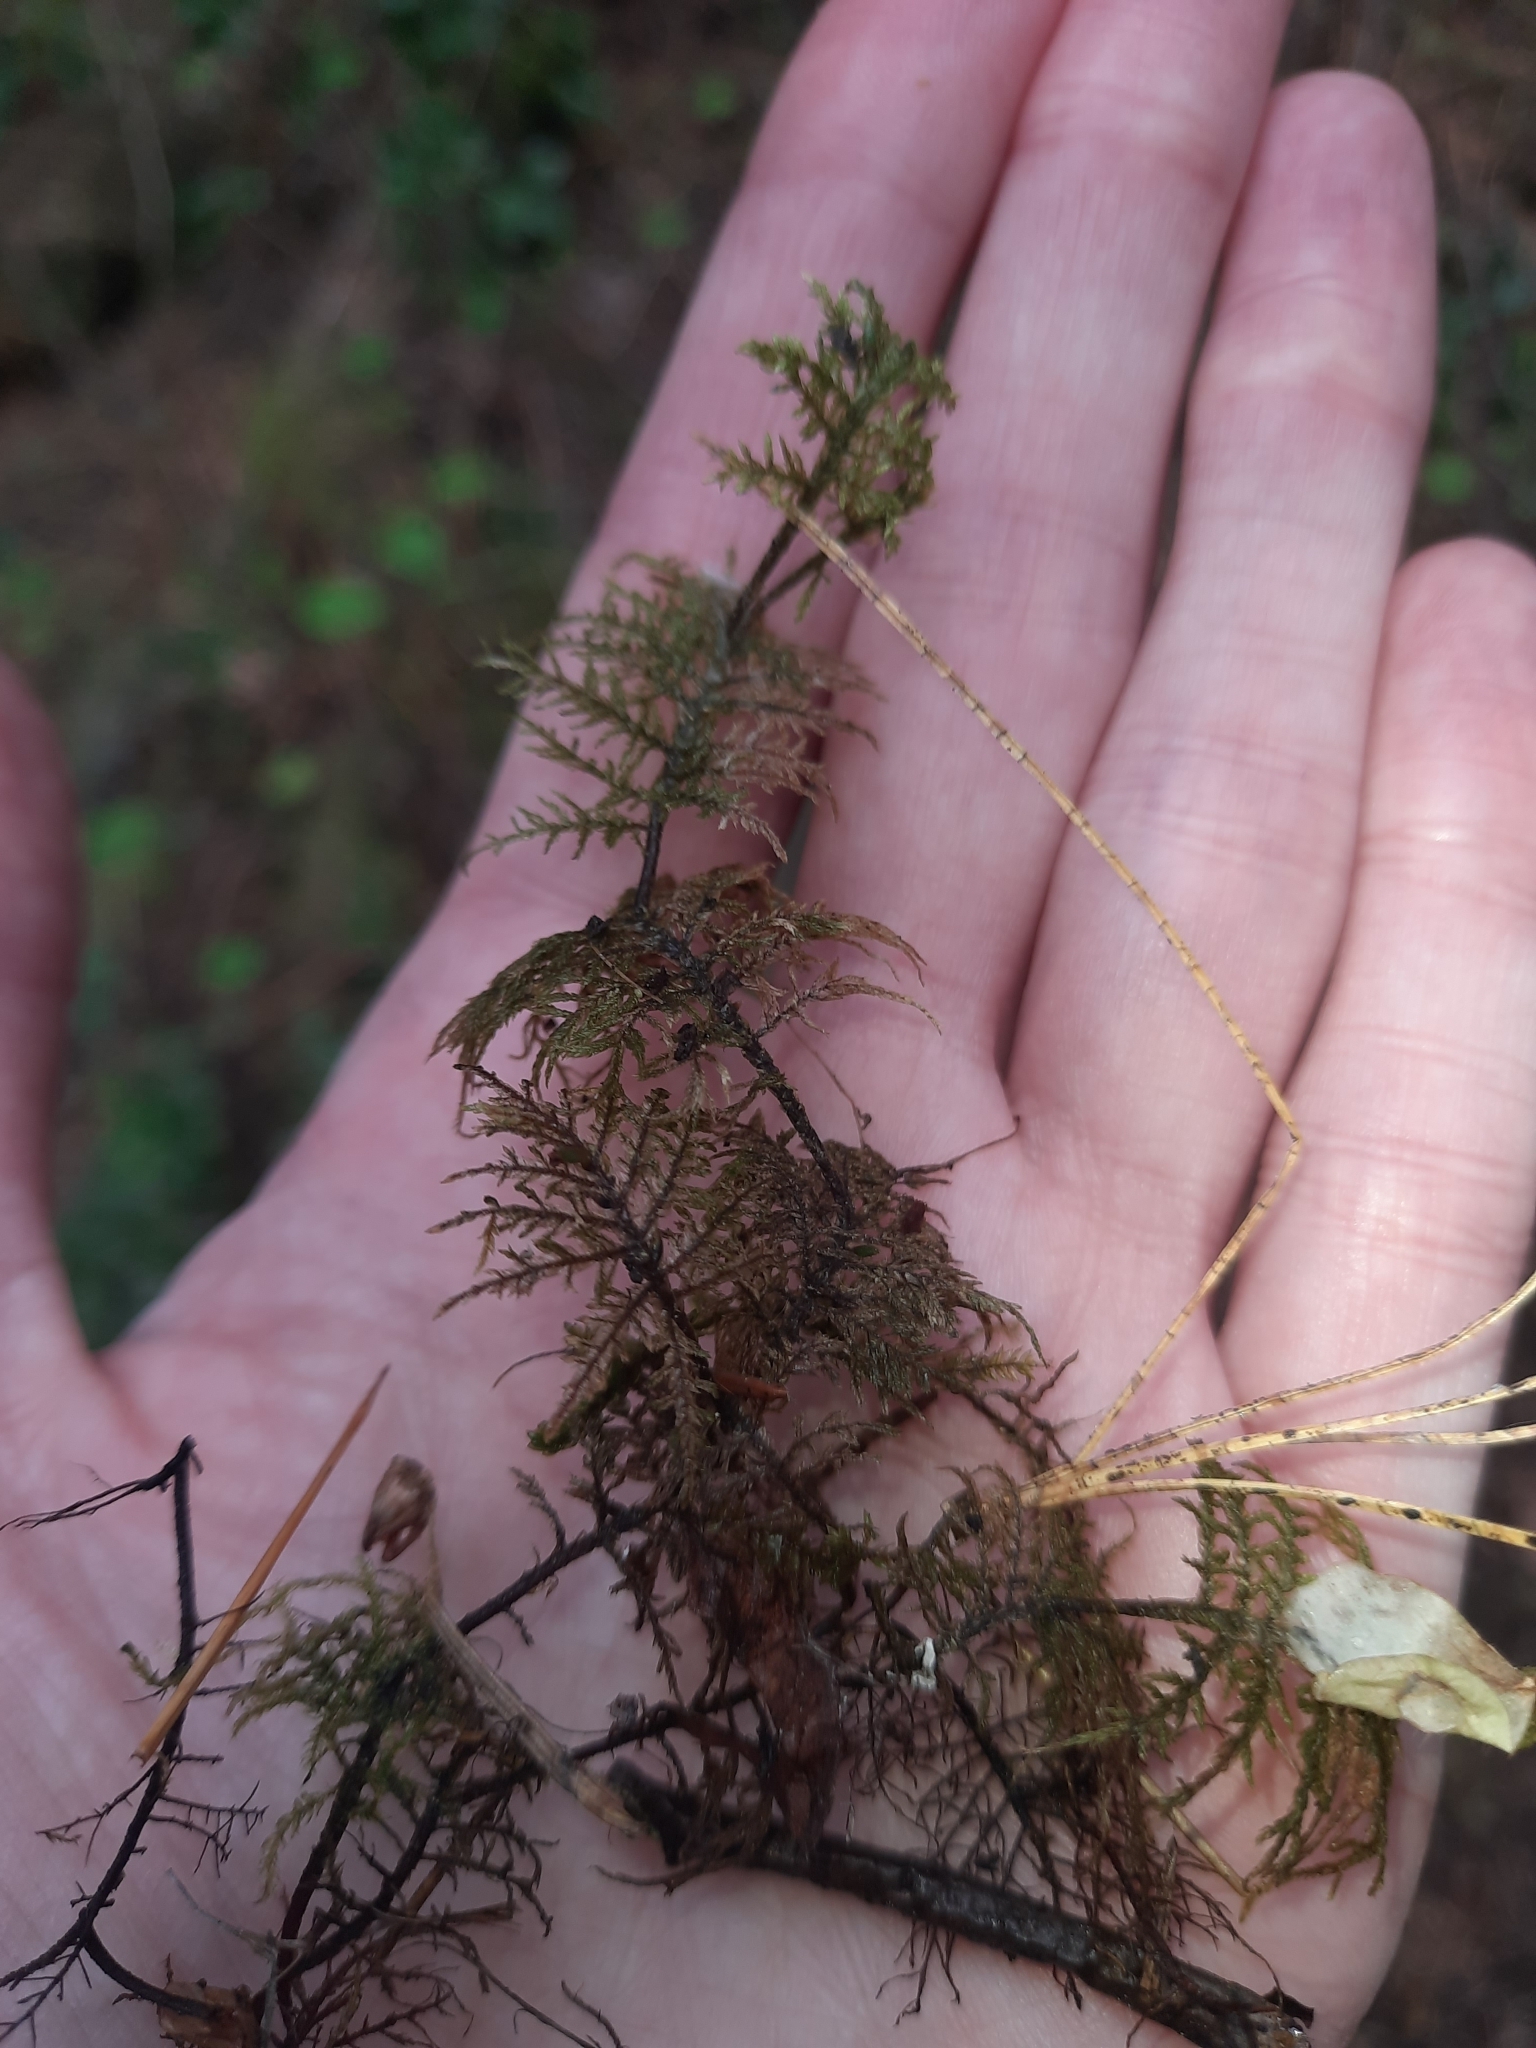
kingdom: Plantae
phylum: Bryophyta
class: Bryopsida
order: Hypnales
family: Hylocomiaceae
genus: Hylocomium
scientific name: Hylocomium splendens
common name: Stairstep moss
